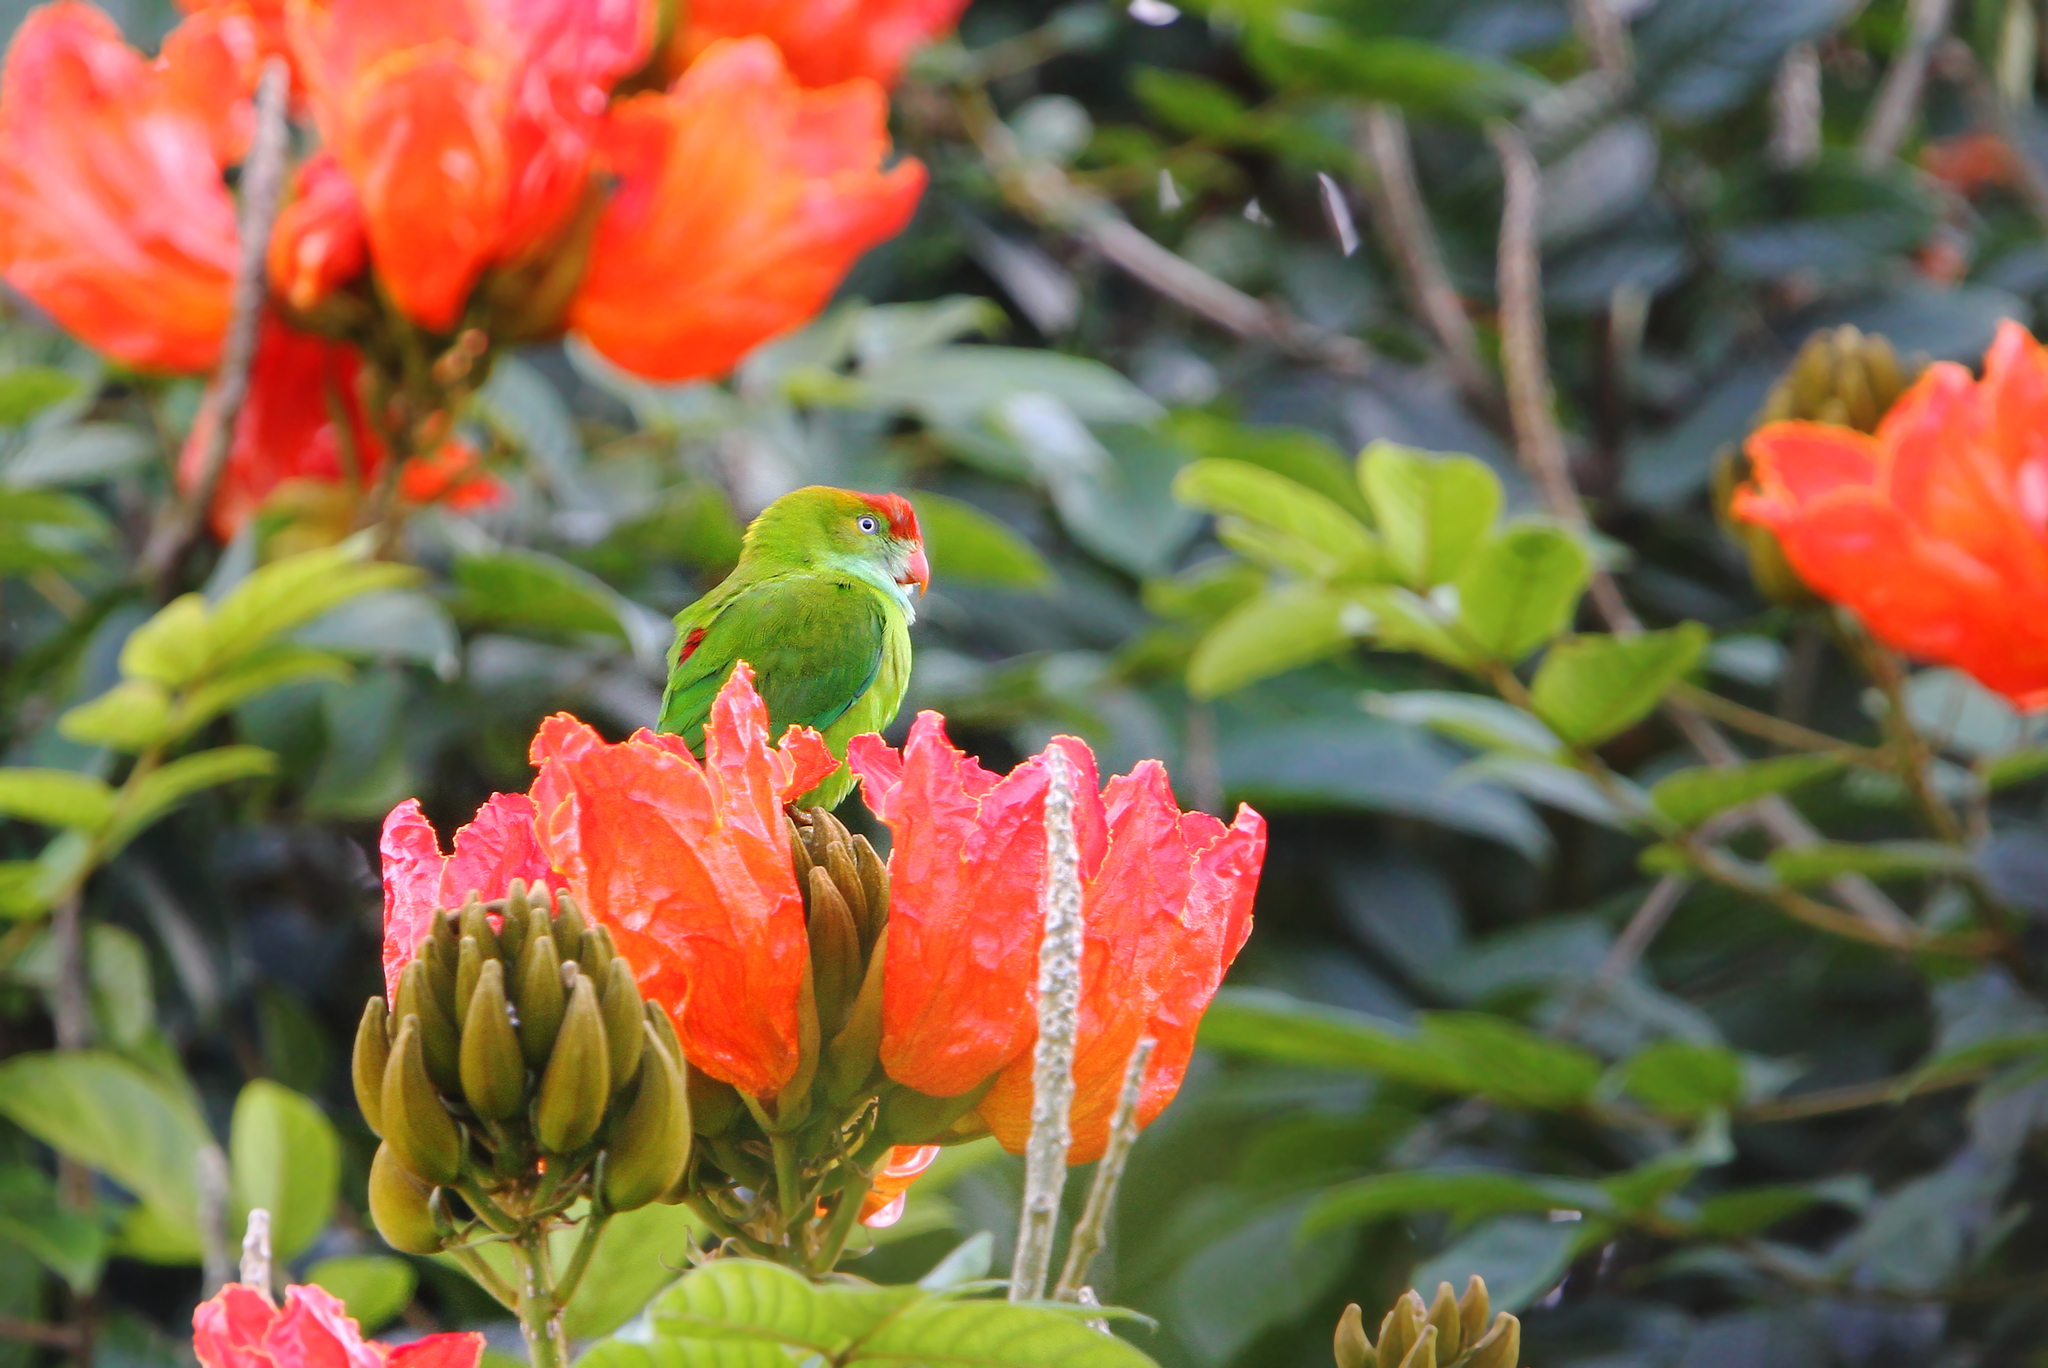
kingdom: Animalia
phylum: Chordata
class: Aves
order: Psittaciformes
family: Psittacidae
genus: Loriculus
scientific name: Loriculus beryllinus
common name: Sri lanka hanging parrot
